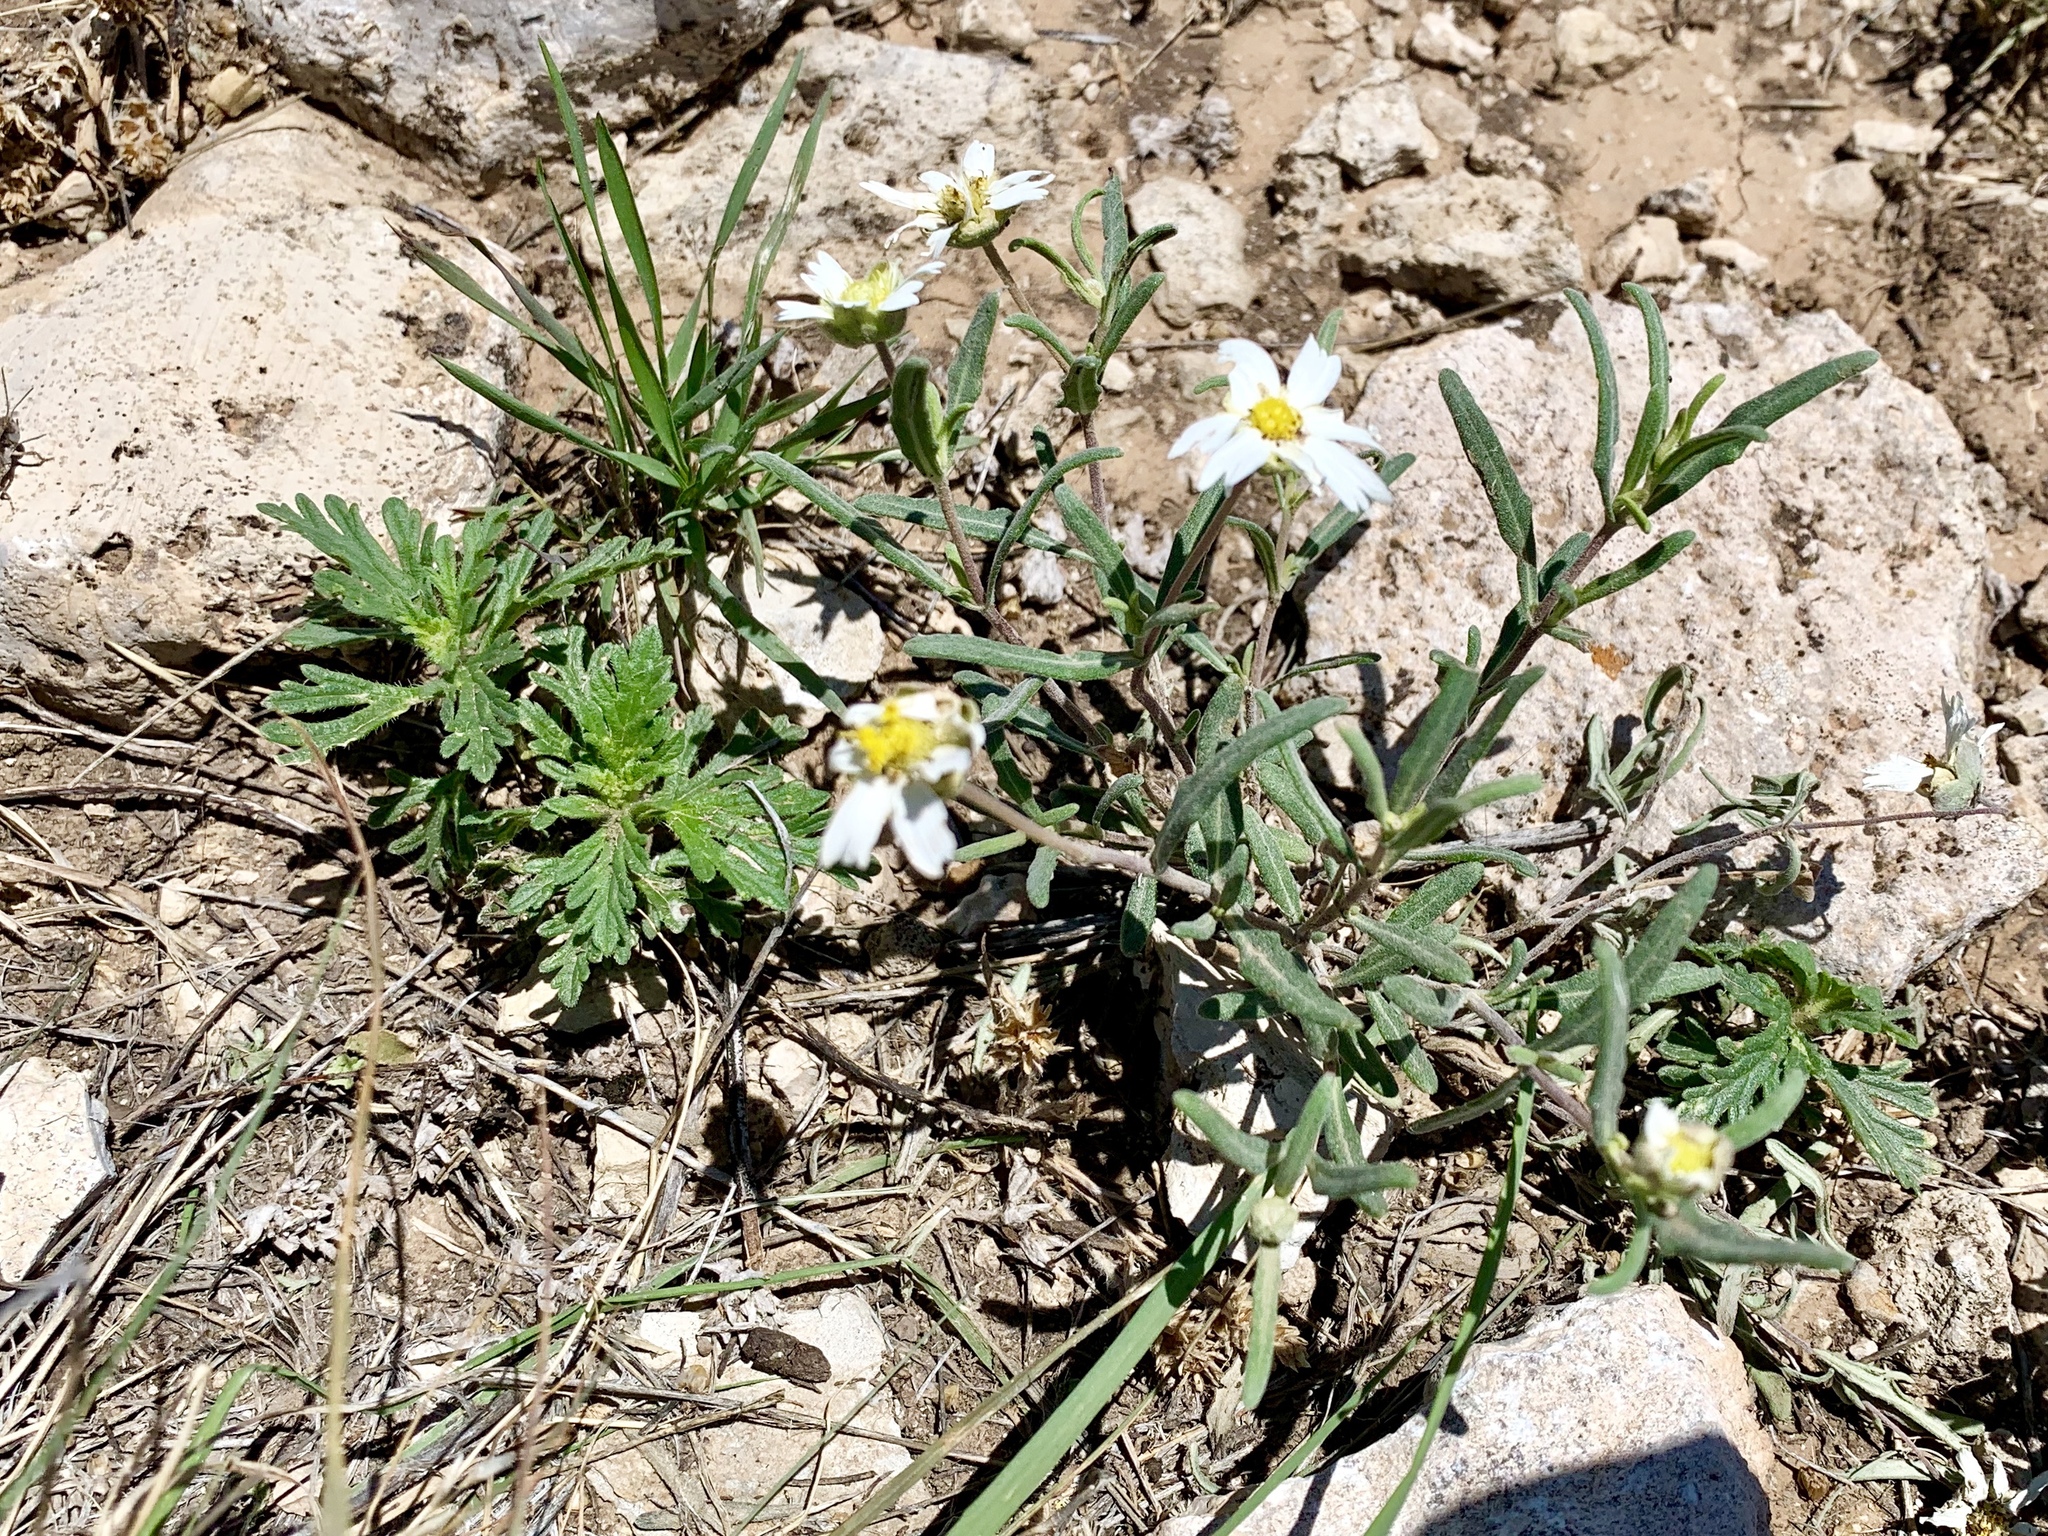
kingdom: Plantae
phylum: Tracheophyta
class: Magnoliopsida
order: Asterales
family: Asteraceae
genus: Melampodium
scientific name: Melampodium leucanthum
